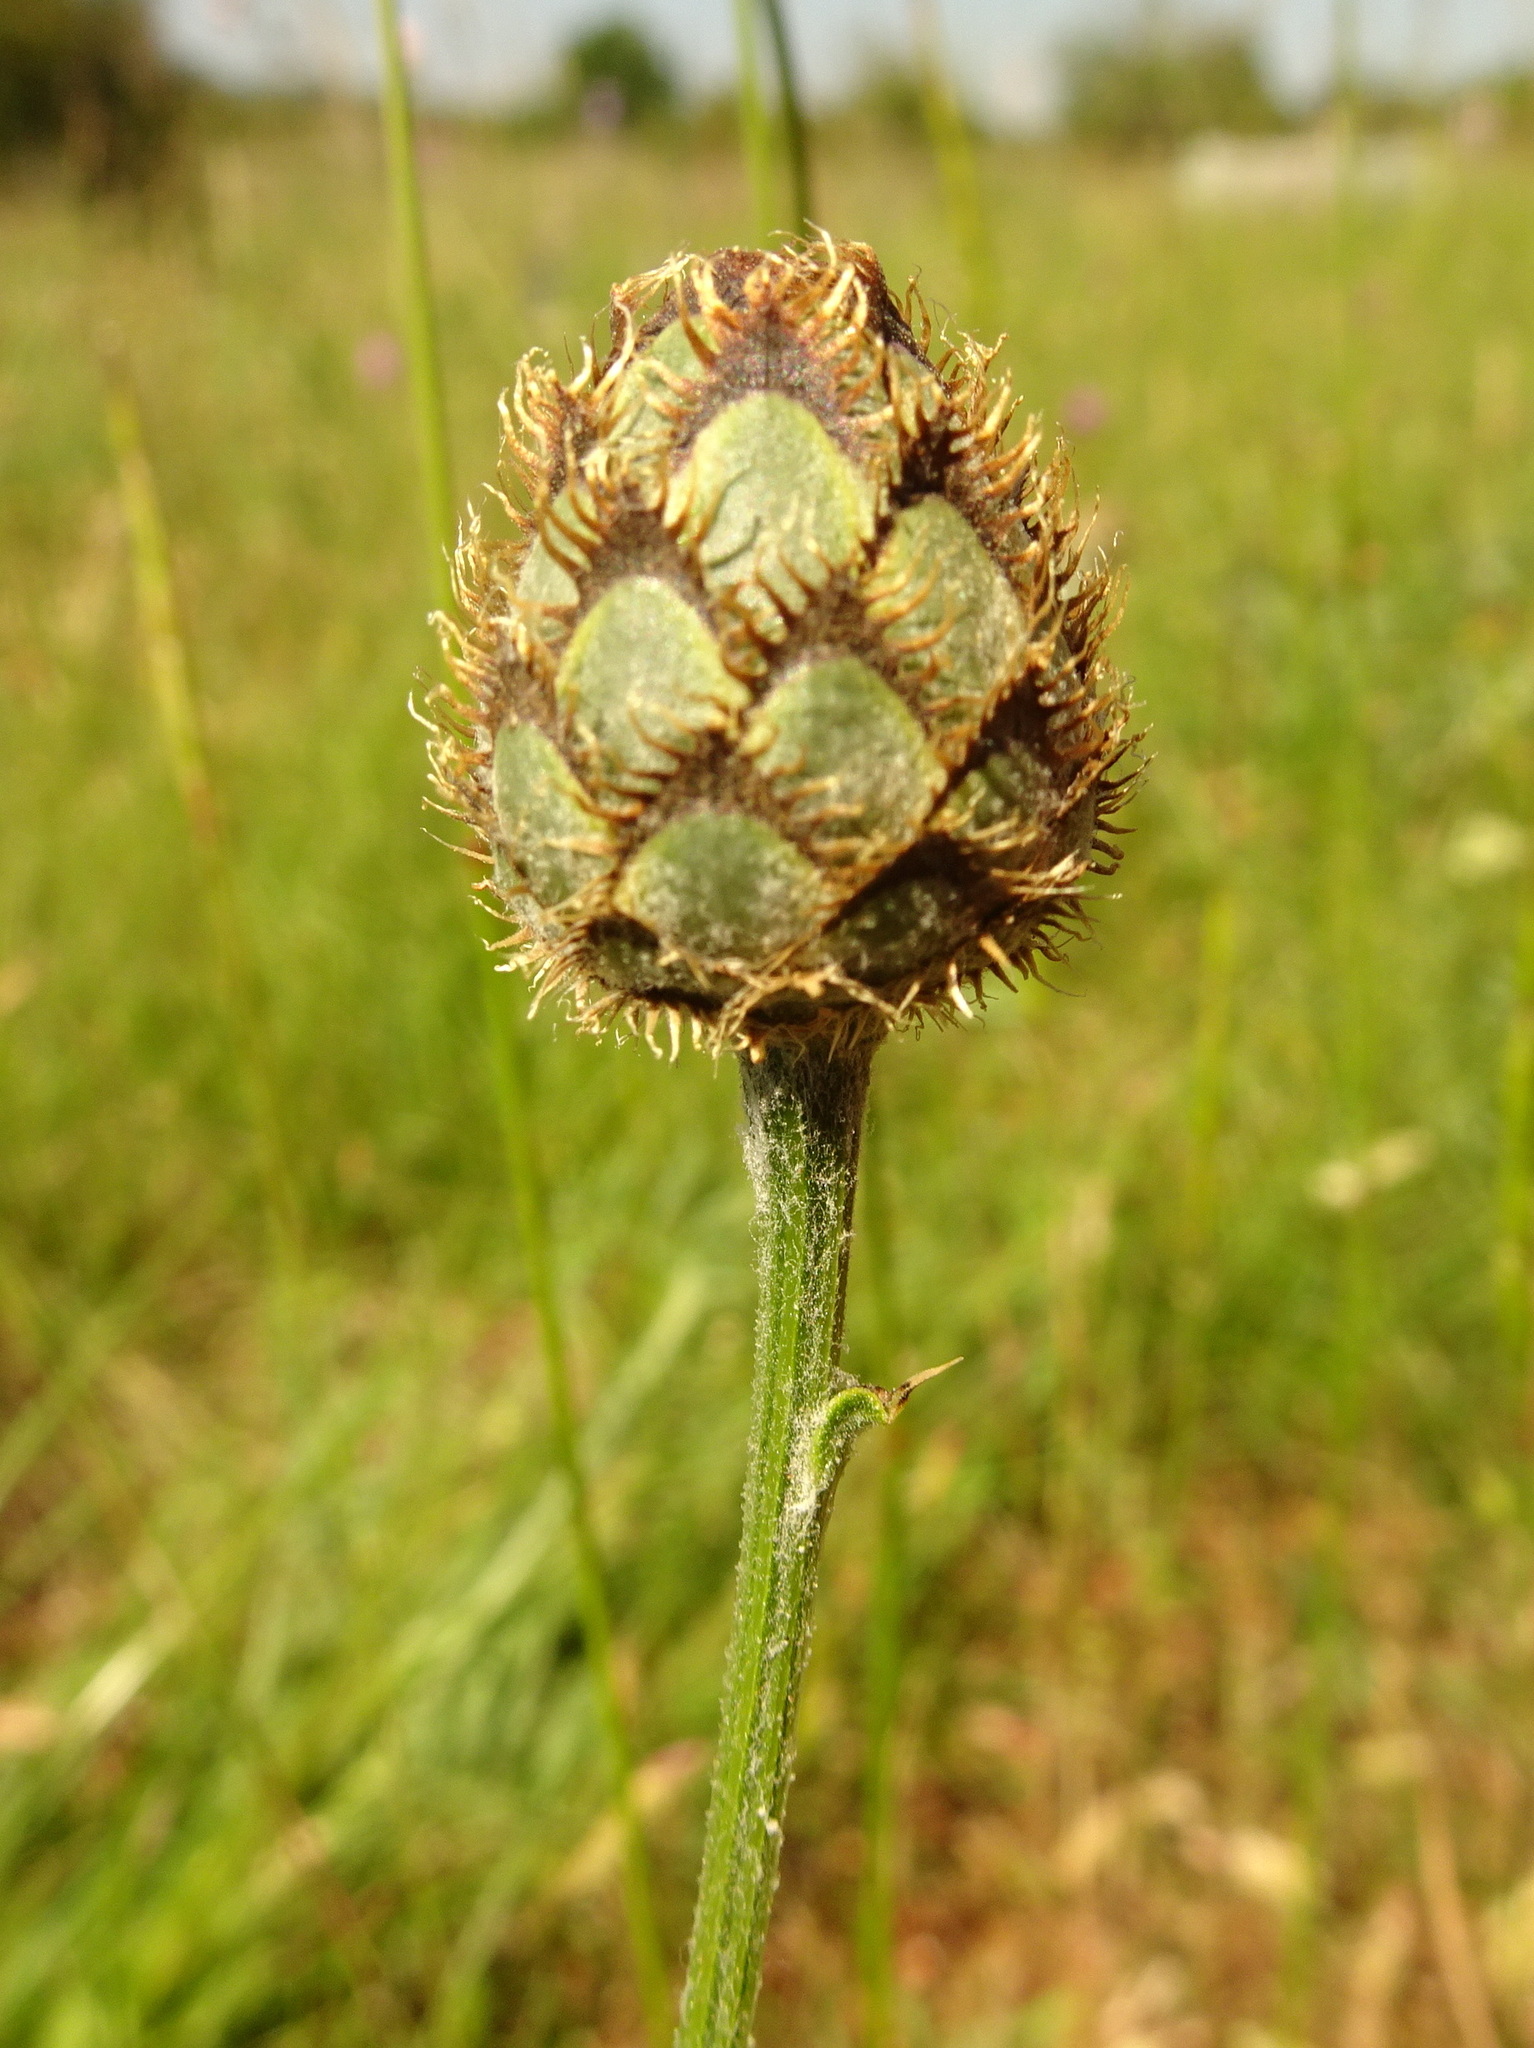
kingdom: Plantae
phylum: Tracheophyta
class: Magnoliopsida
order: Asterales
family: Asteraceae
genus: Centaurea
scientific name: Centaurea scabiosa
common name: Greater knapweed
